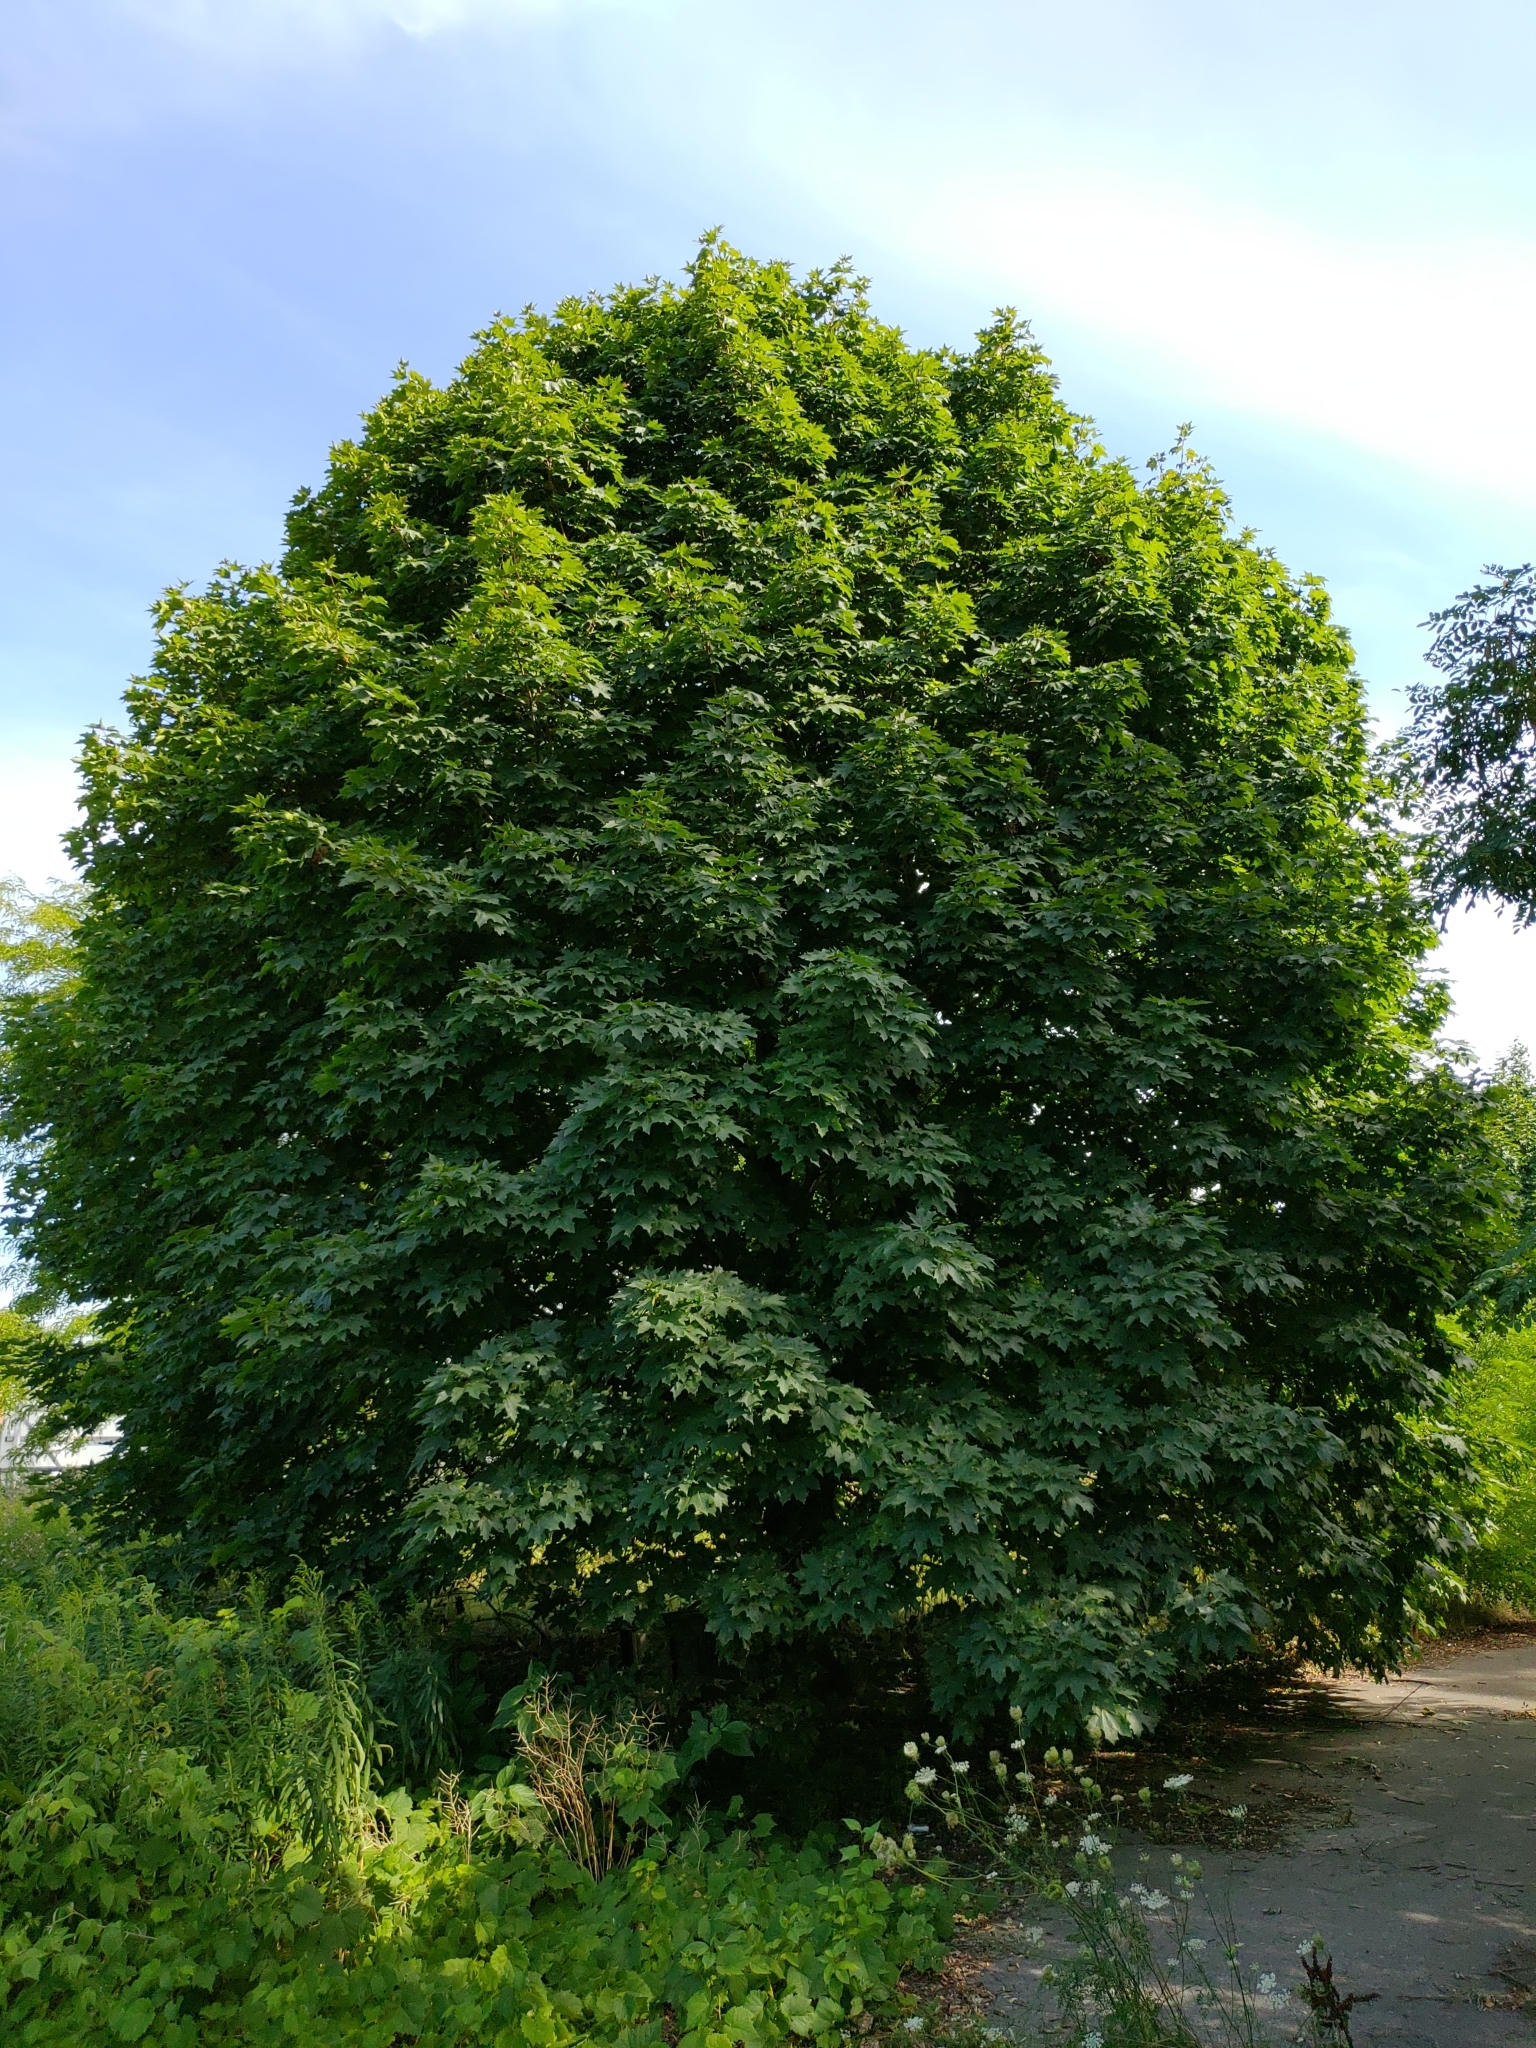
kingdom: Plantae
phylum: Tracheophyta
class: Magnoliopsida
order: Sapindales
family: Sapindaceae
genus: Acer
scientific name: Acer platanoides
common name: Norway maple
